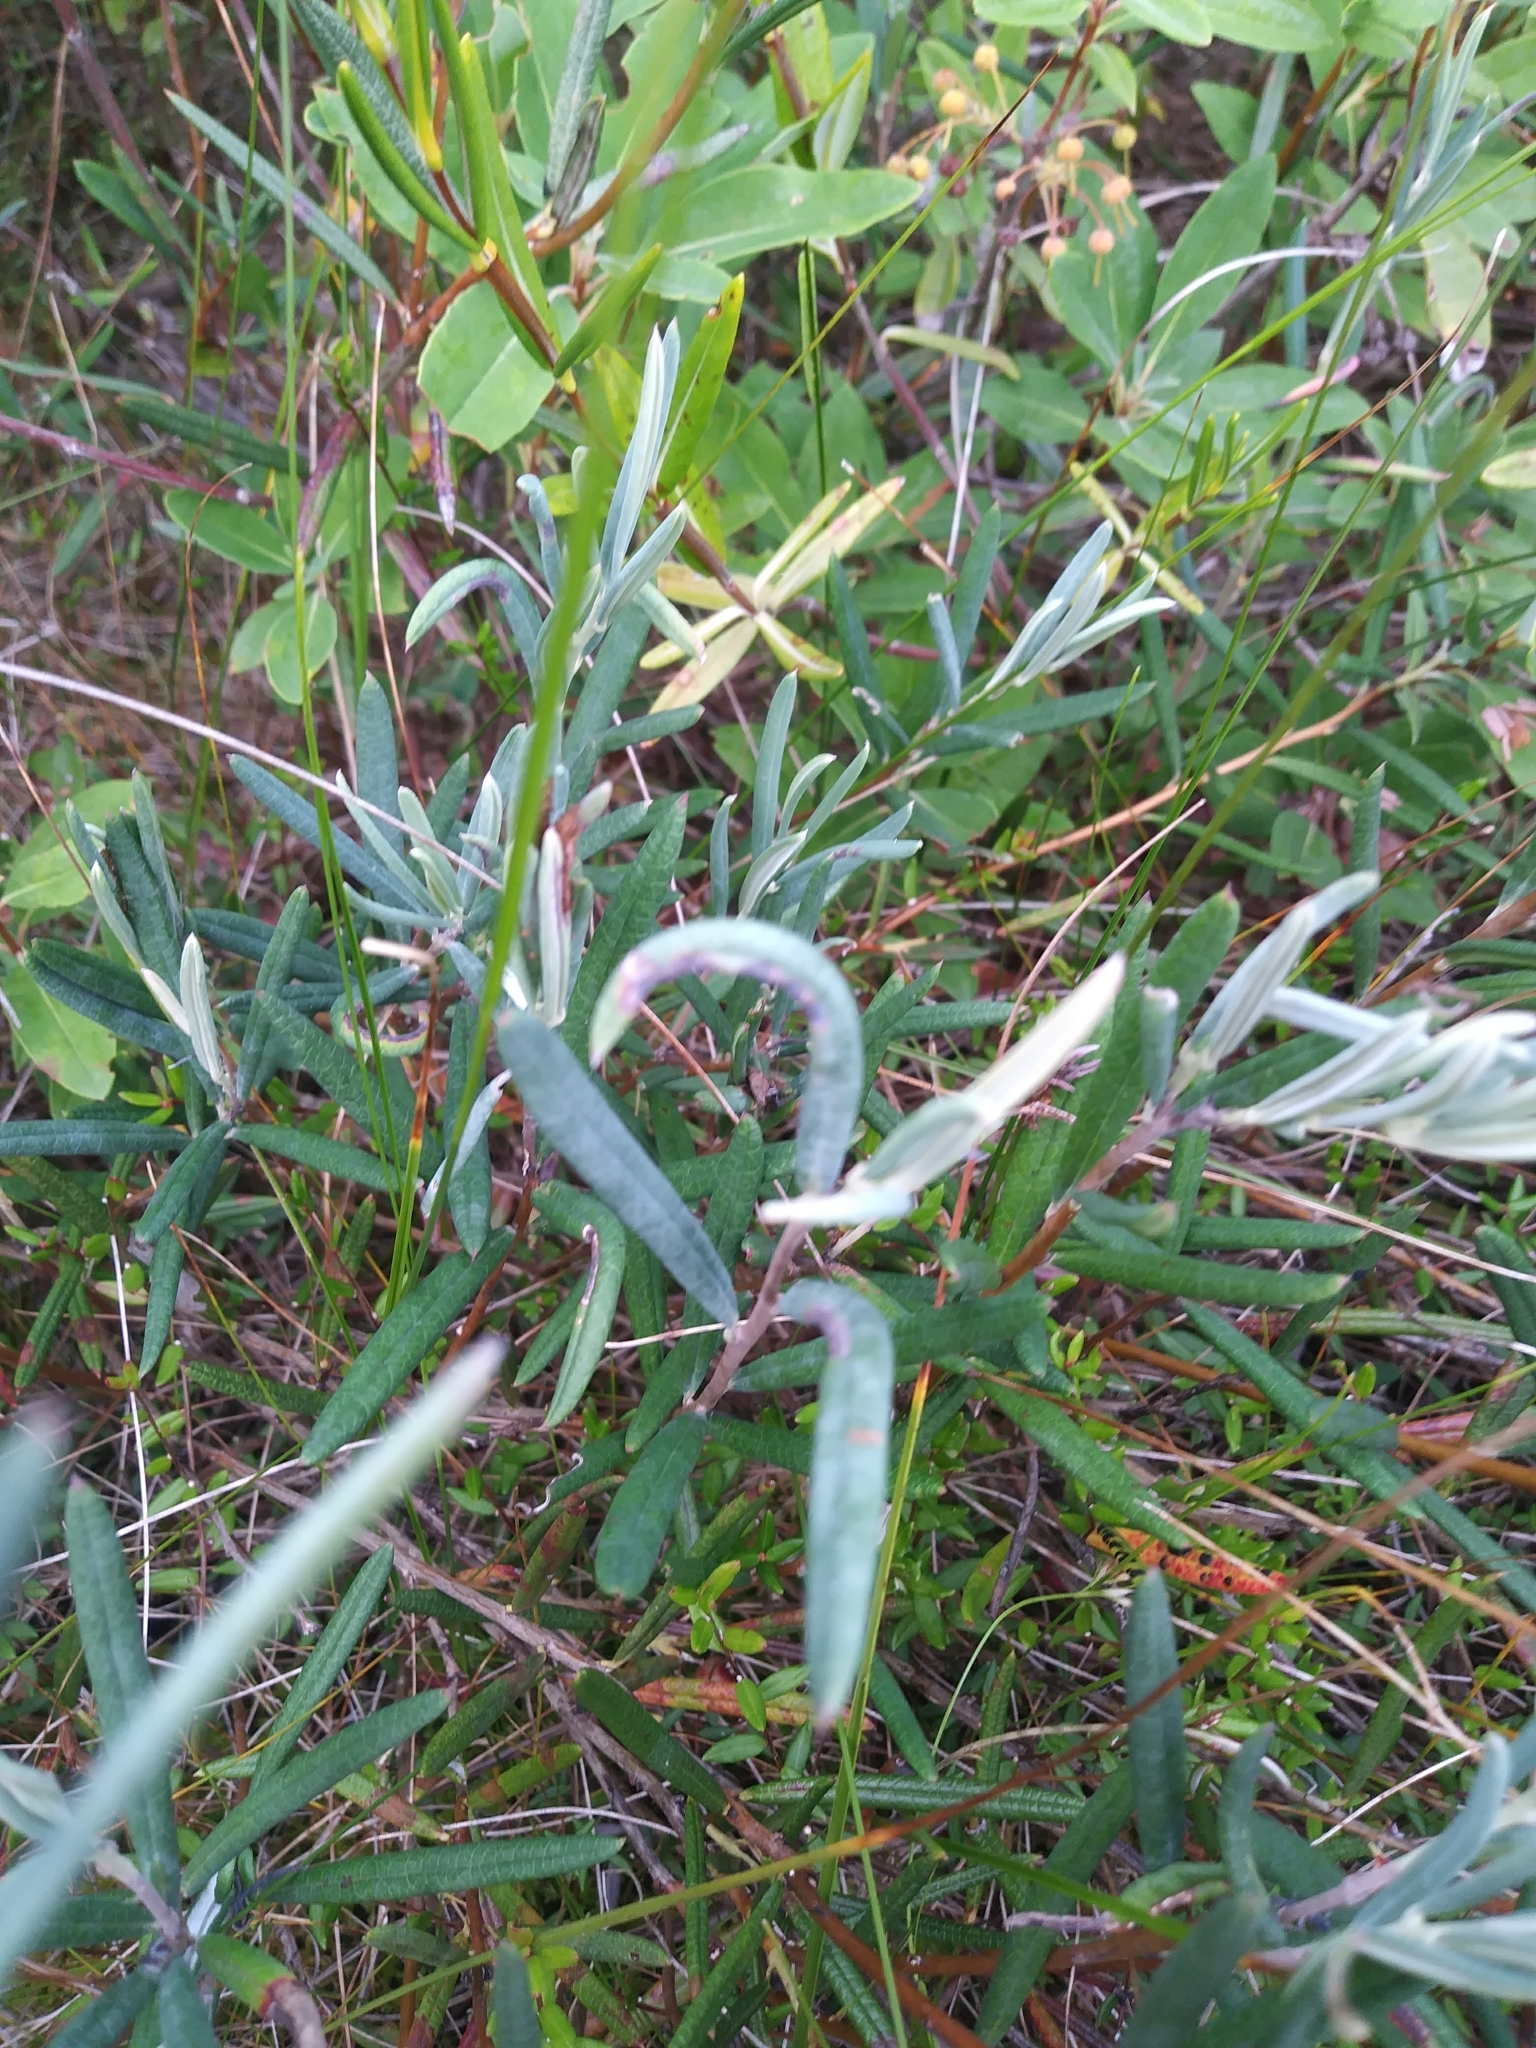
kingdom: Plantae
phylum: Tracheophyta
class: Magnoliopsida
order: Ericales
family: Ericaceae
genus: Andromeda
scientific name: Andromeda polifolia
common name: Bog-rosemary
